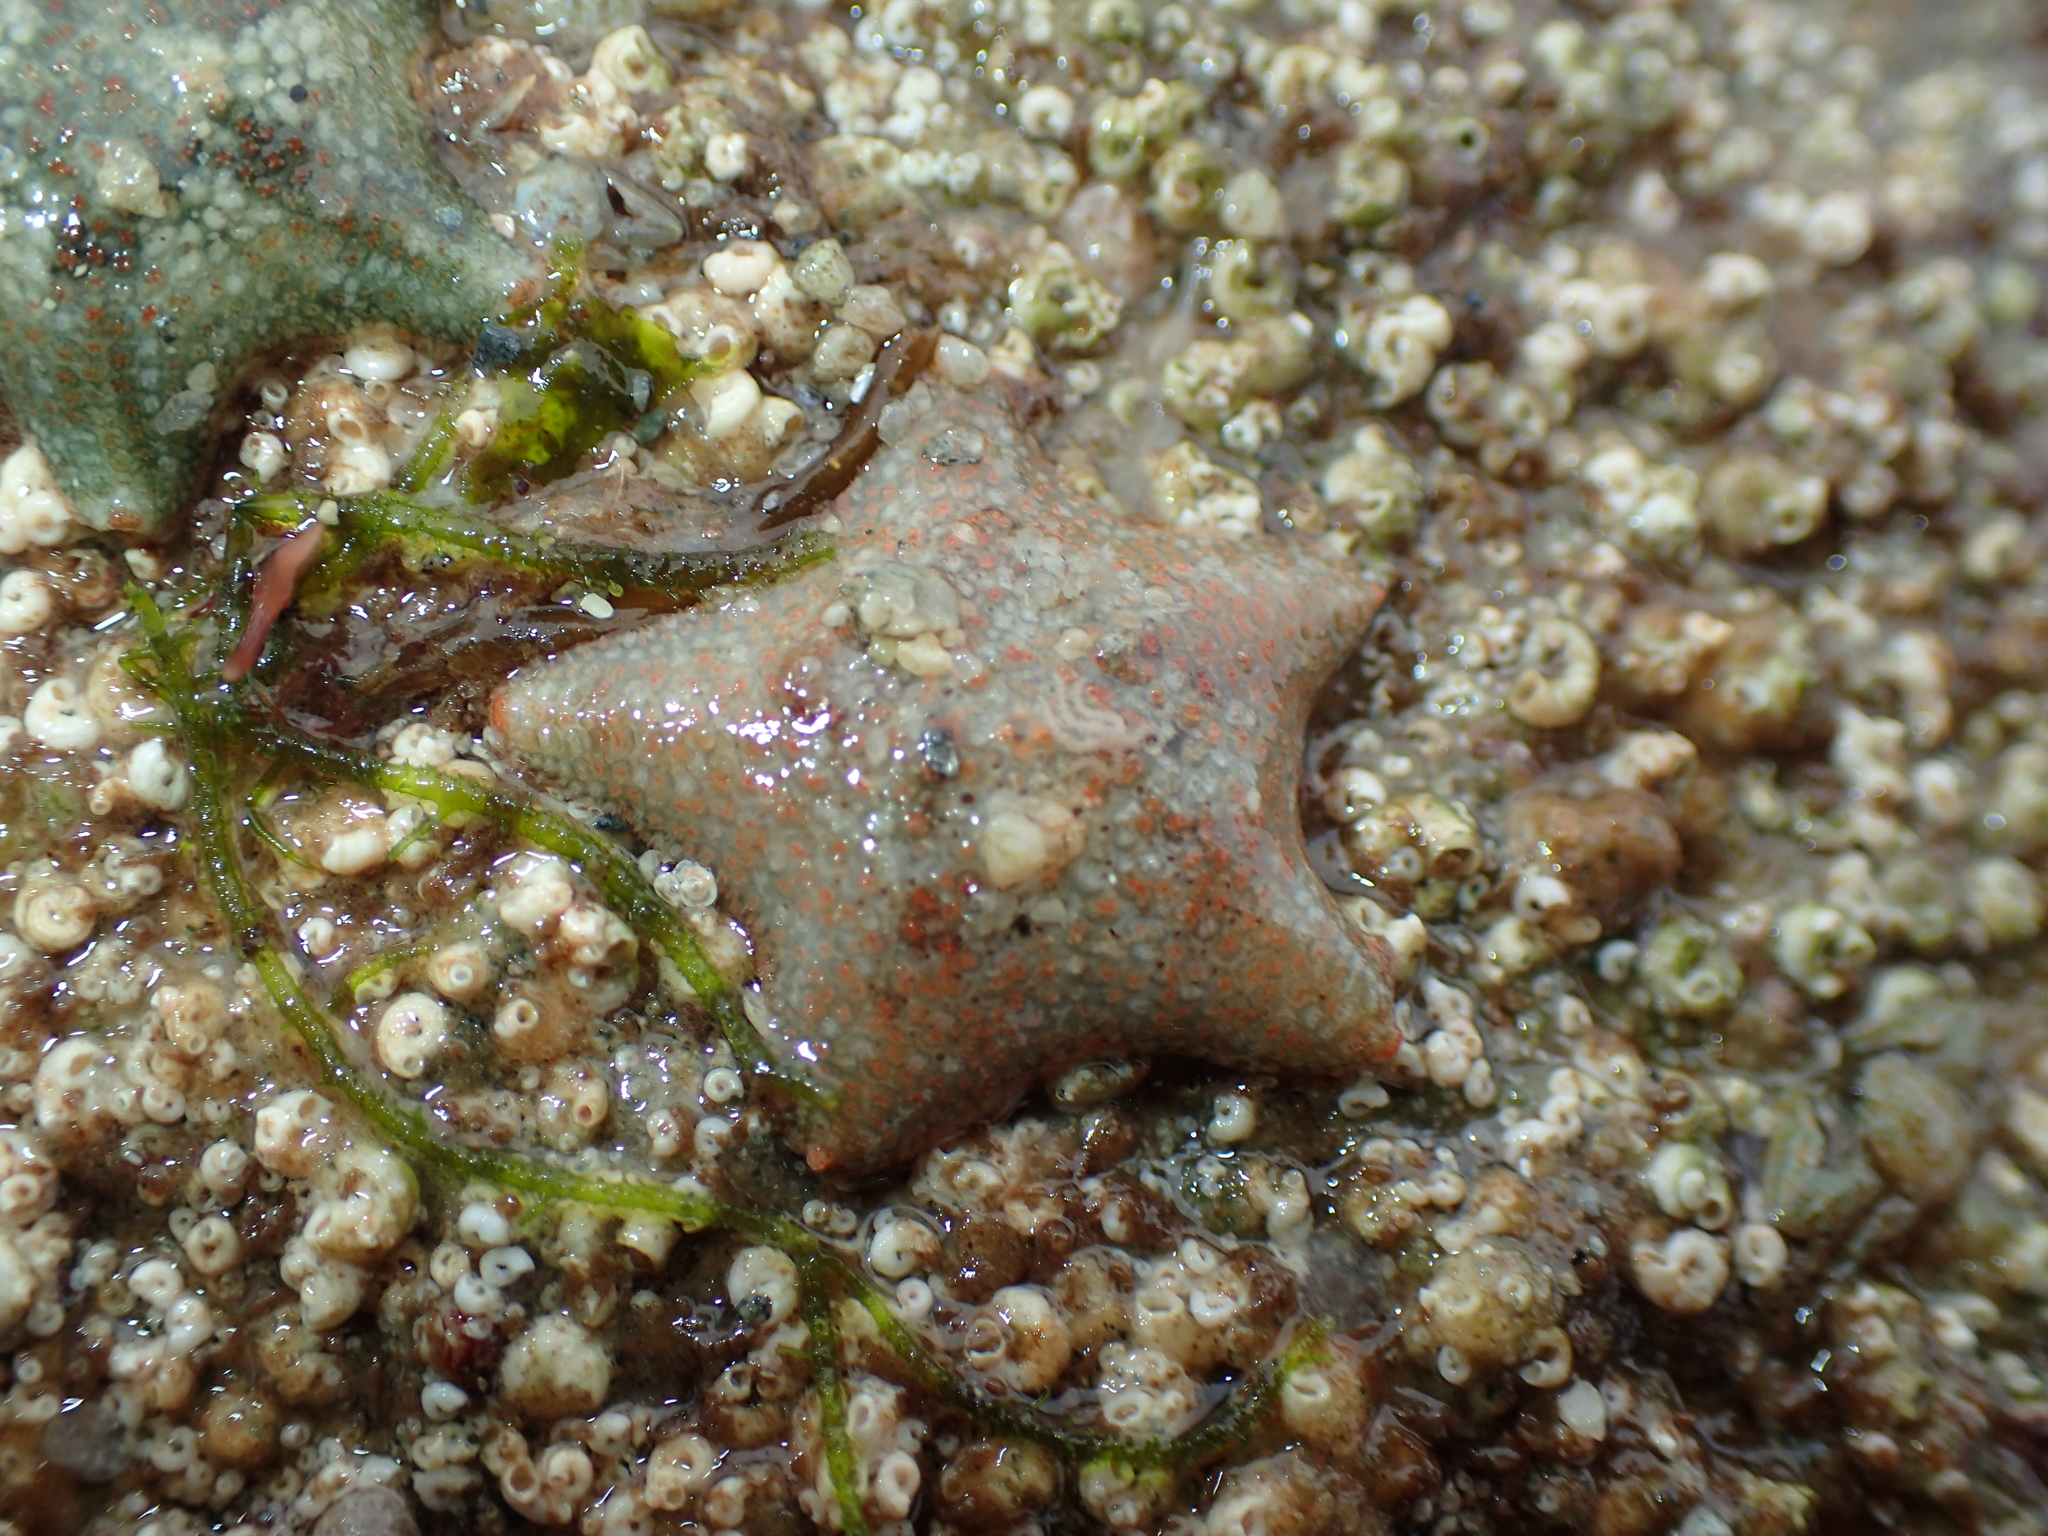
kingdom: Animalia
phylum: Echinodermata
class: Asteroidea
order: Valvatida
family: Asterinidae
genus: Asterina
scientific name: Asterina gibbosa
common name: Cushion star
